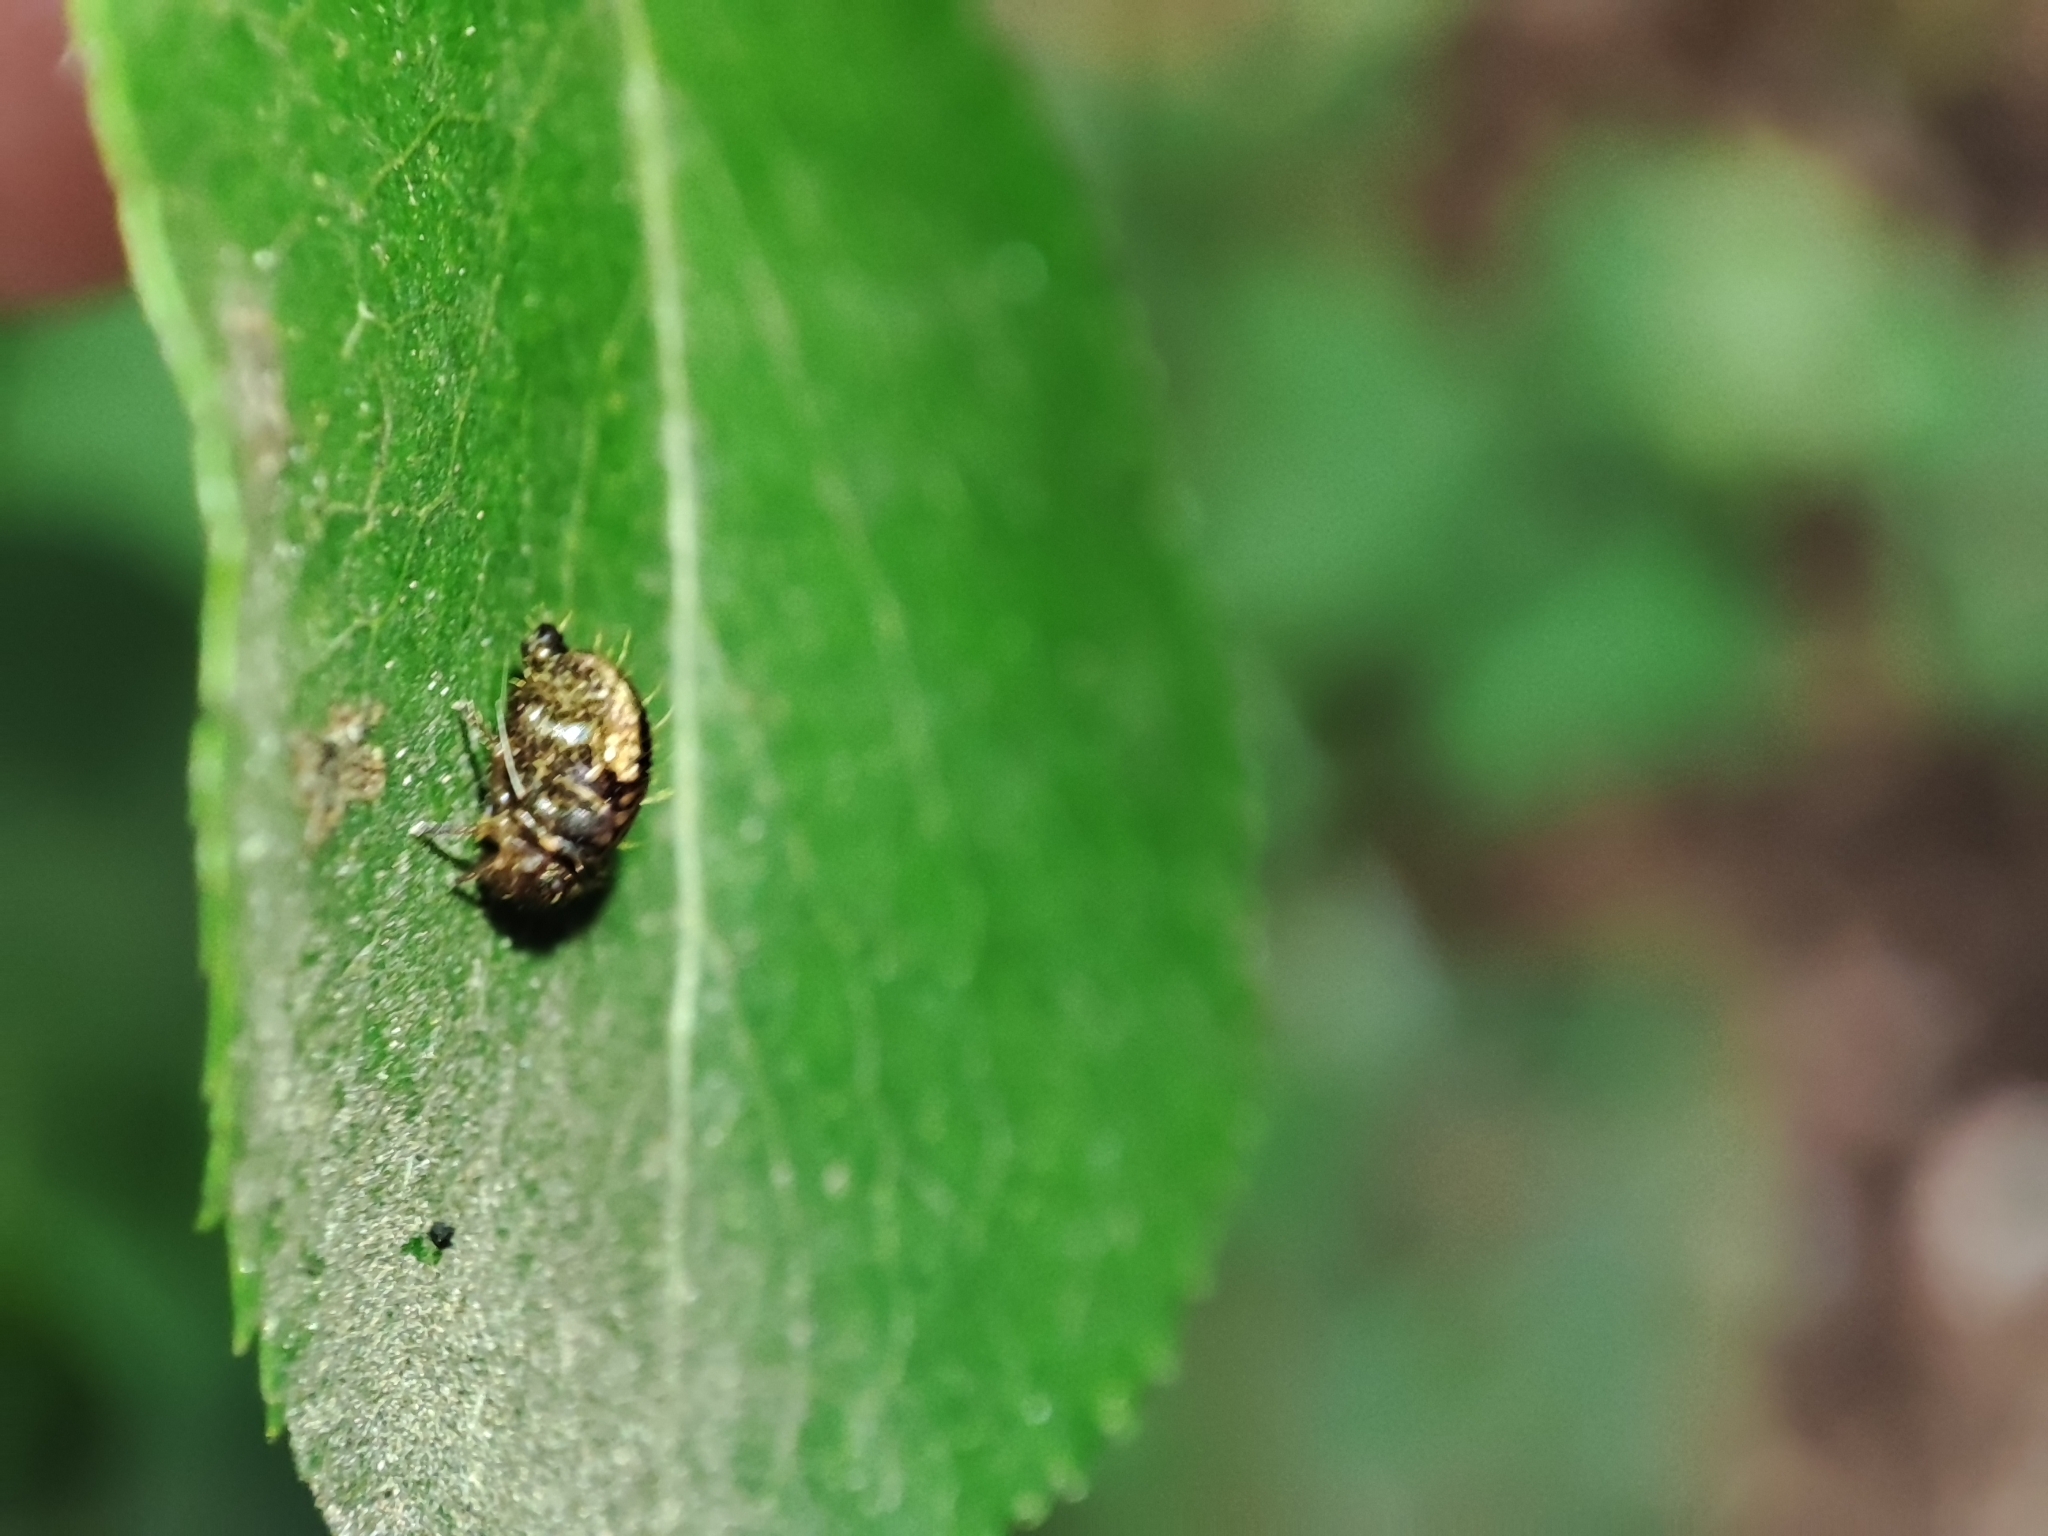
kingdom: Plantae
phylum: Tracheophyta
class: Magnoliopsida
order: Rosales
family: Rosaceae
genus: Pyrus
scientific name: Pyrus communis
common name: Pear
